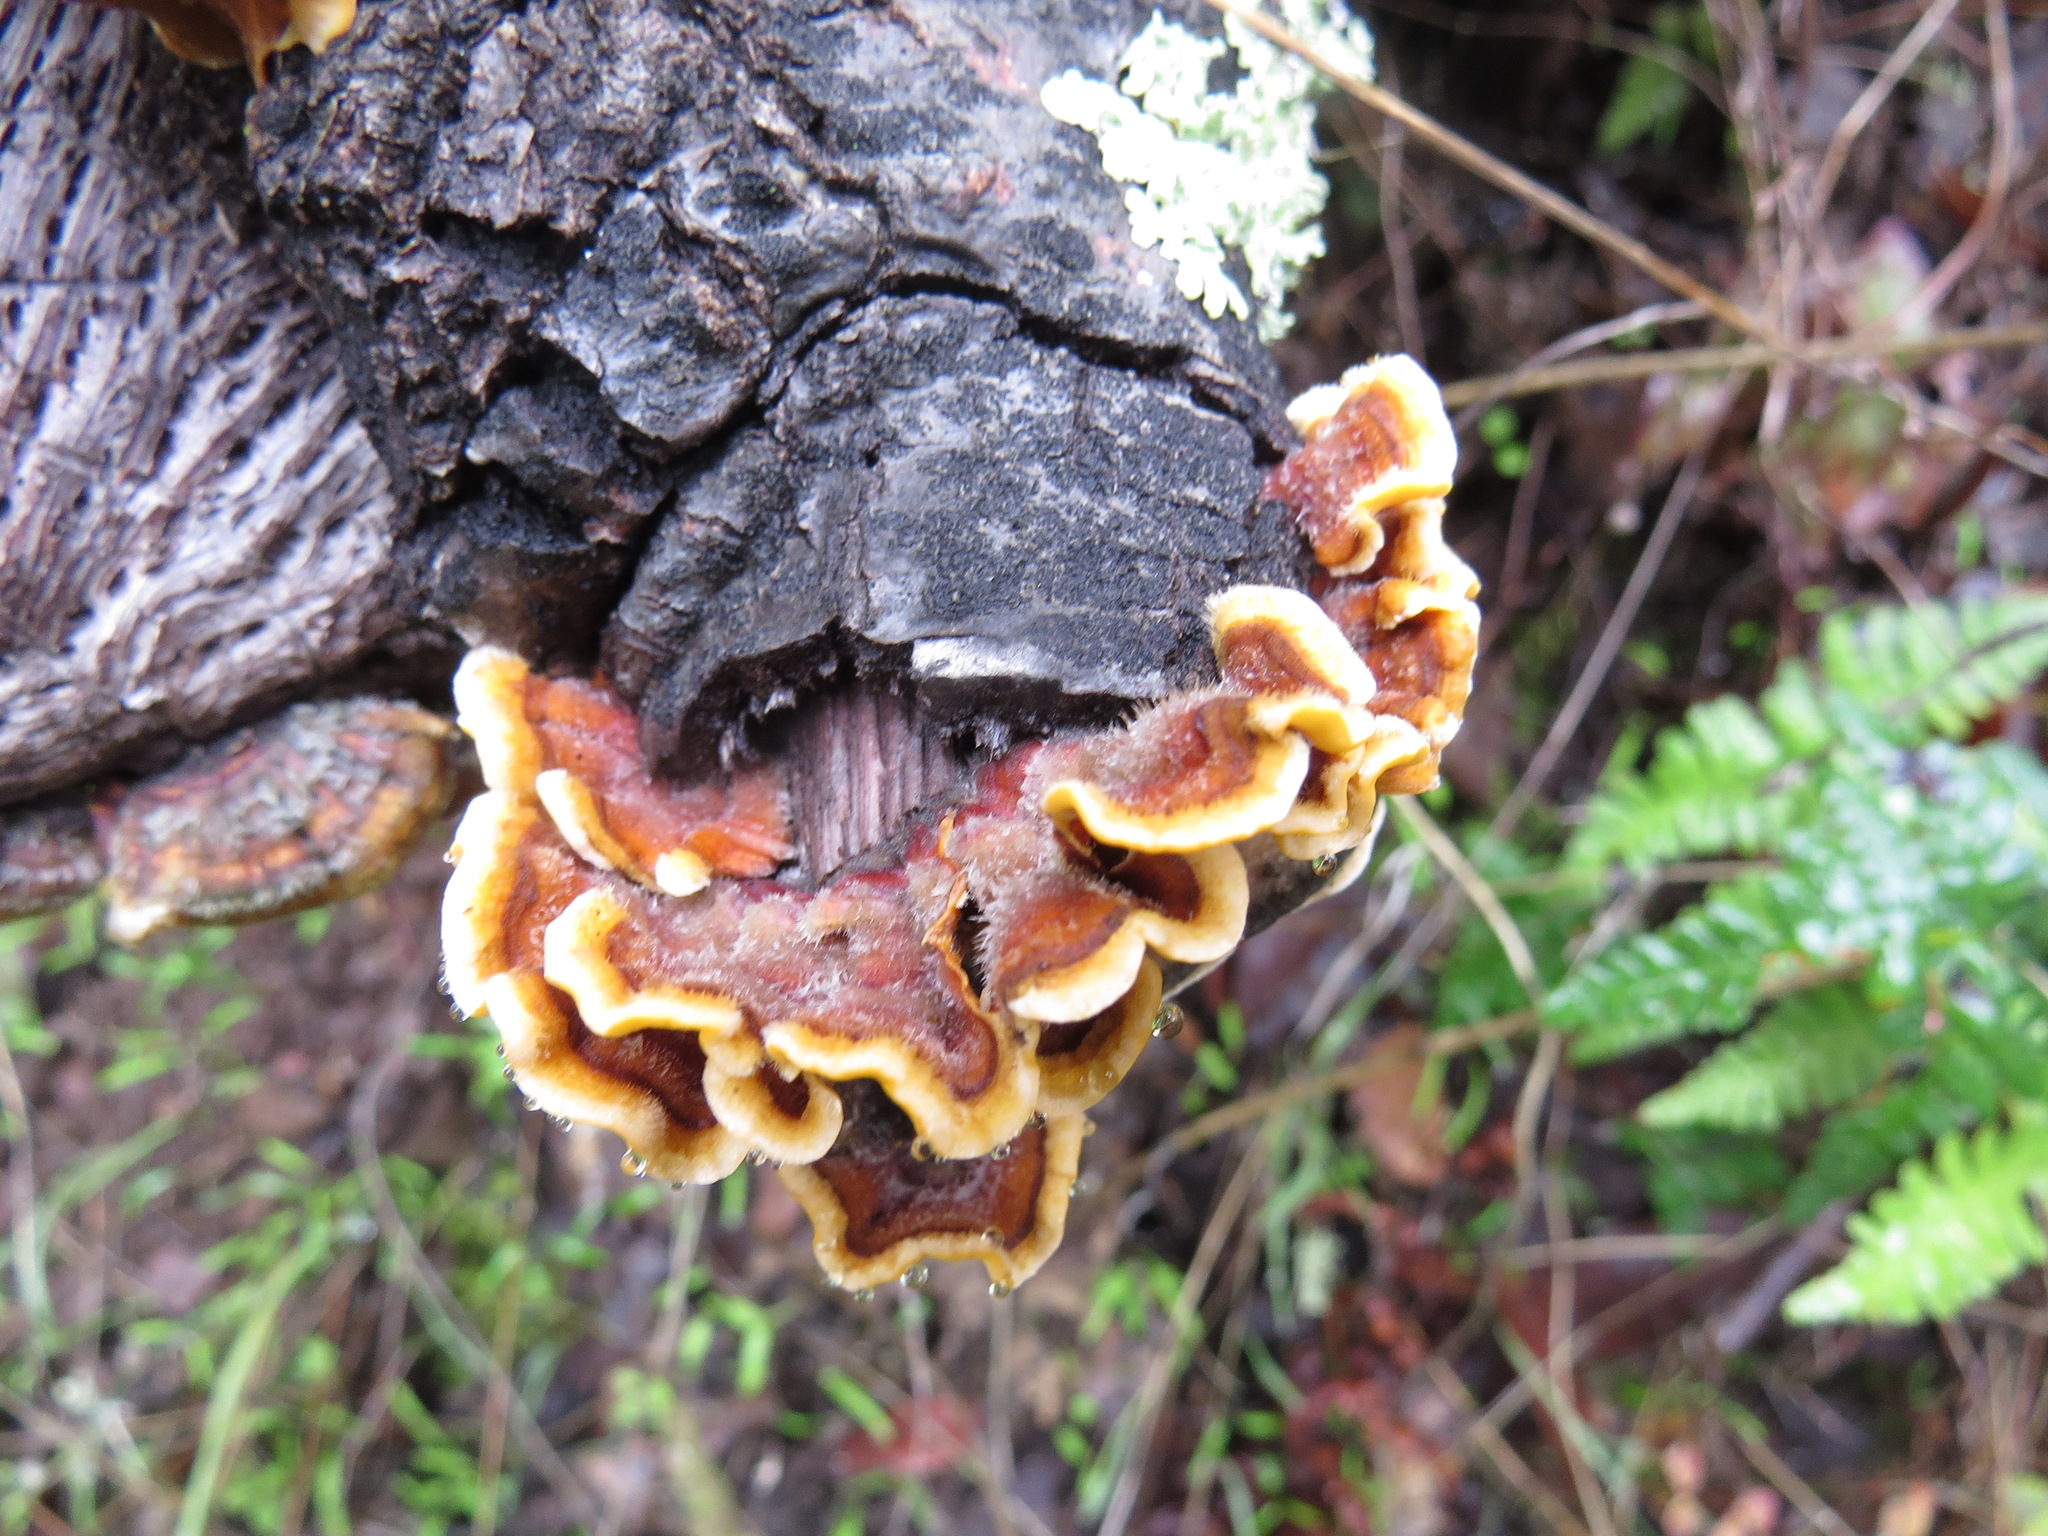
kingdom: Fungi
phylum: Basidiomycota
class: Agaricomycetes
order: Russulales
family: Stereaceae
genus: Stereum
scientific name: Stereum hirsutum
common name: Hairy curtain crust
